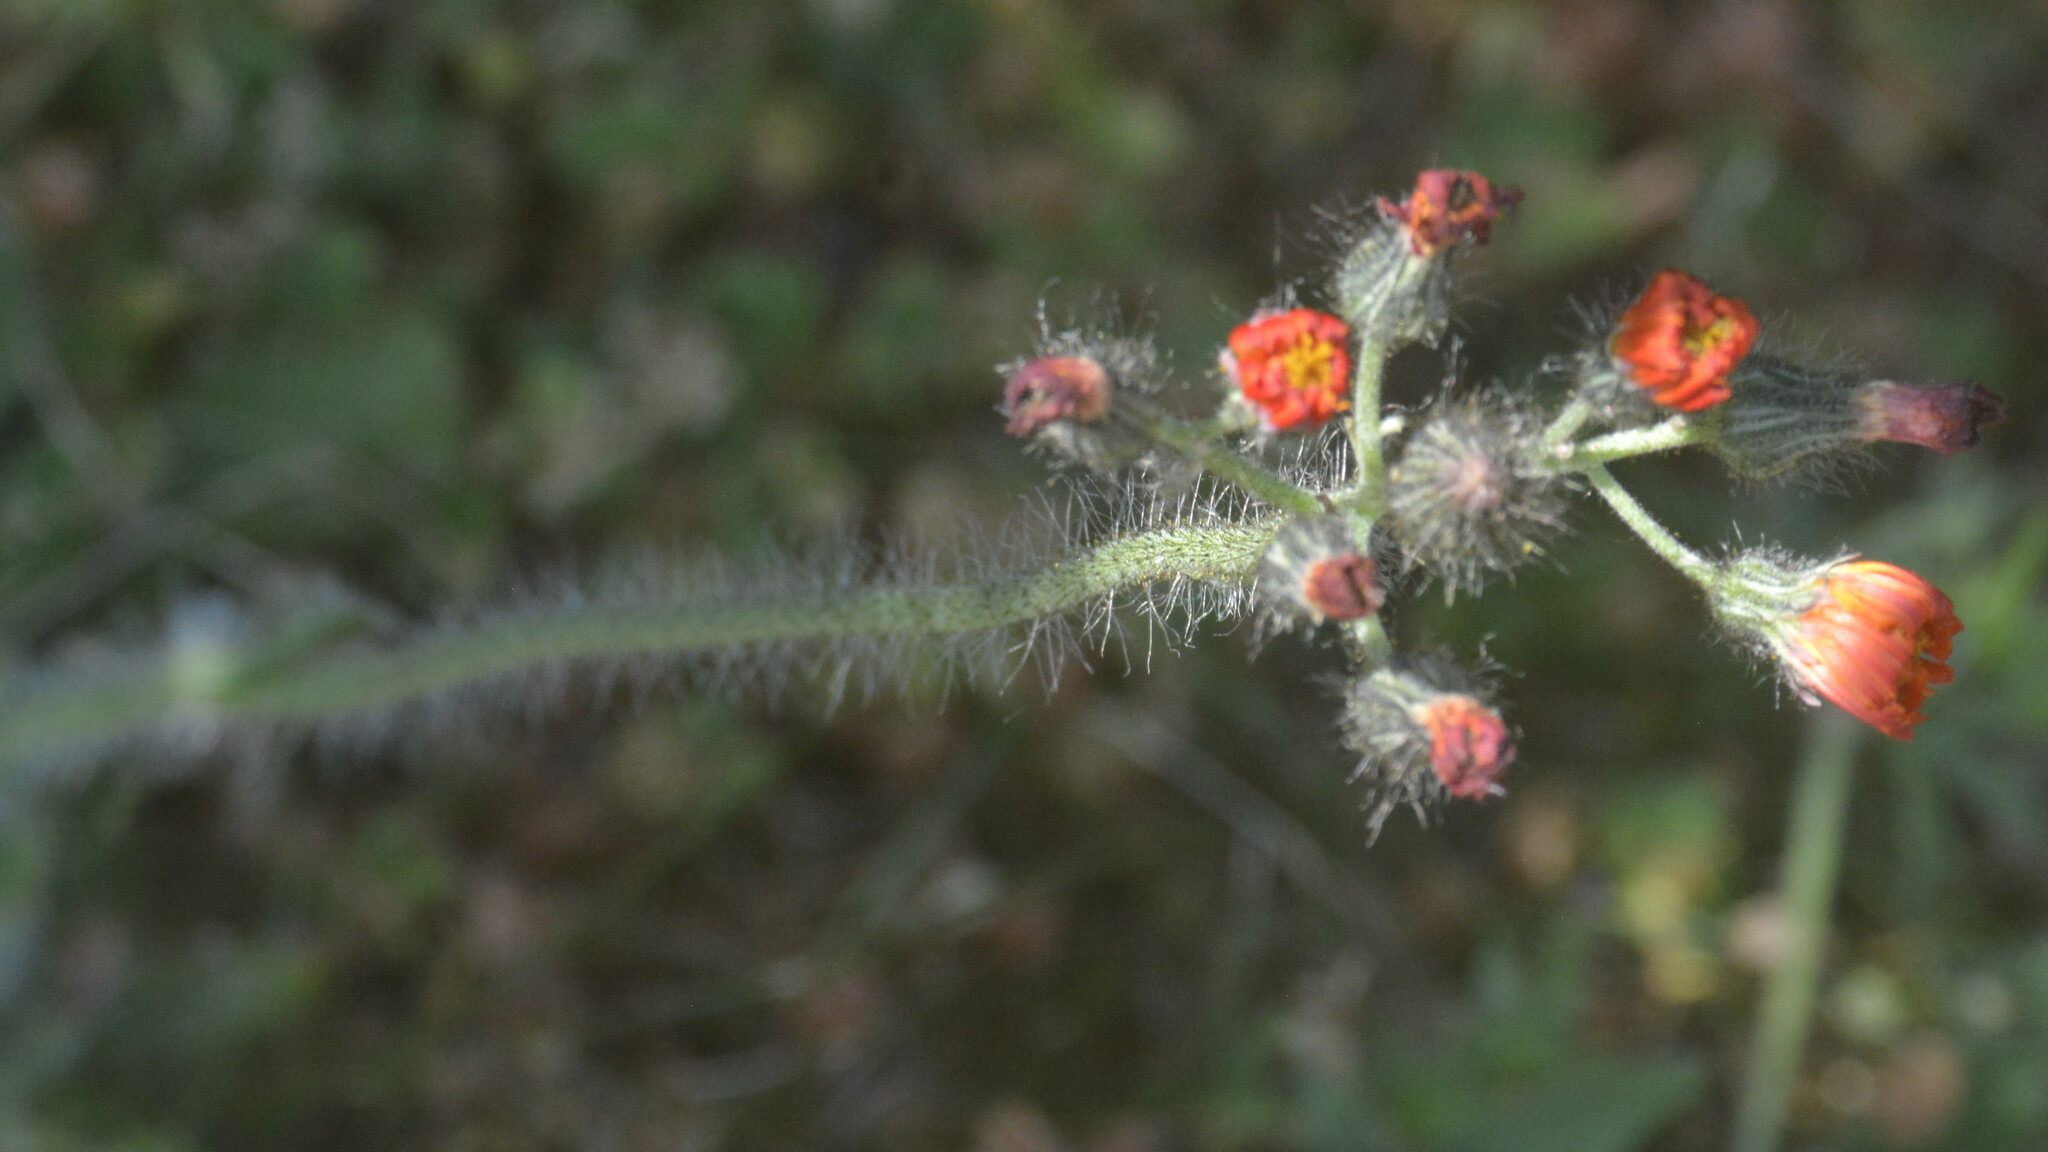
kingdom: Plantae
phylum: Tracheophyta
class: Magnoliopsida
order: Asterales
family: Asteraceae
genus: Pilosella
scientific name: Pilosella aurantiaca
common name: Fox-and-cubs
